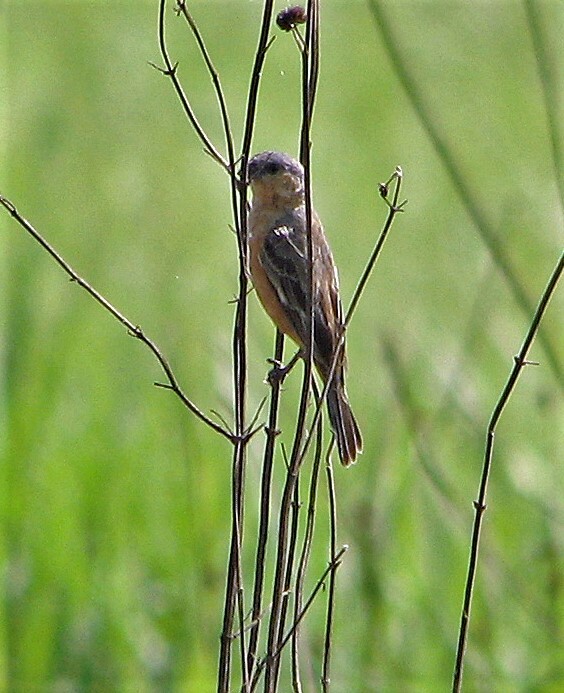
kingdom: Animalia
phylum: Chordata
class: Aves
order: Passeriformes
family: Thraupidae
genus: Sporophila
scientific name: Sporophila hypoxantha
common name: Tawny-bellied seedeater
